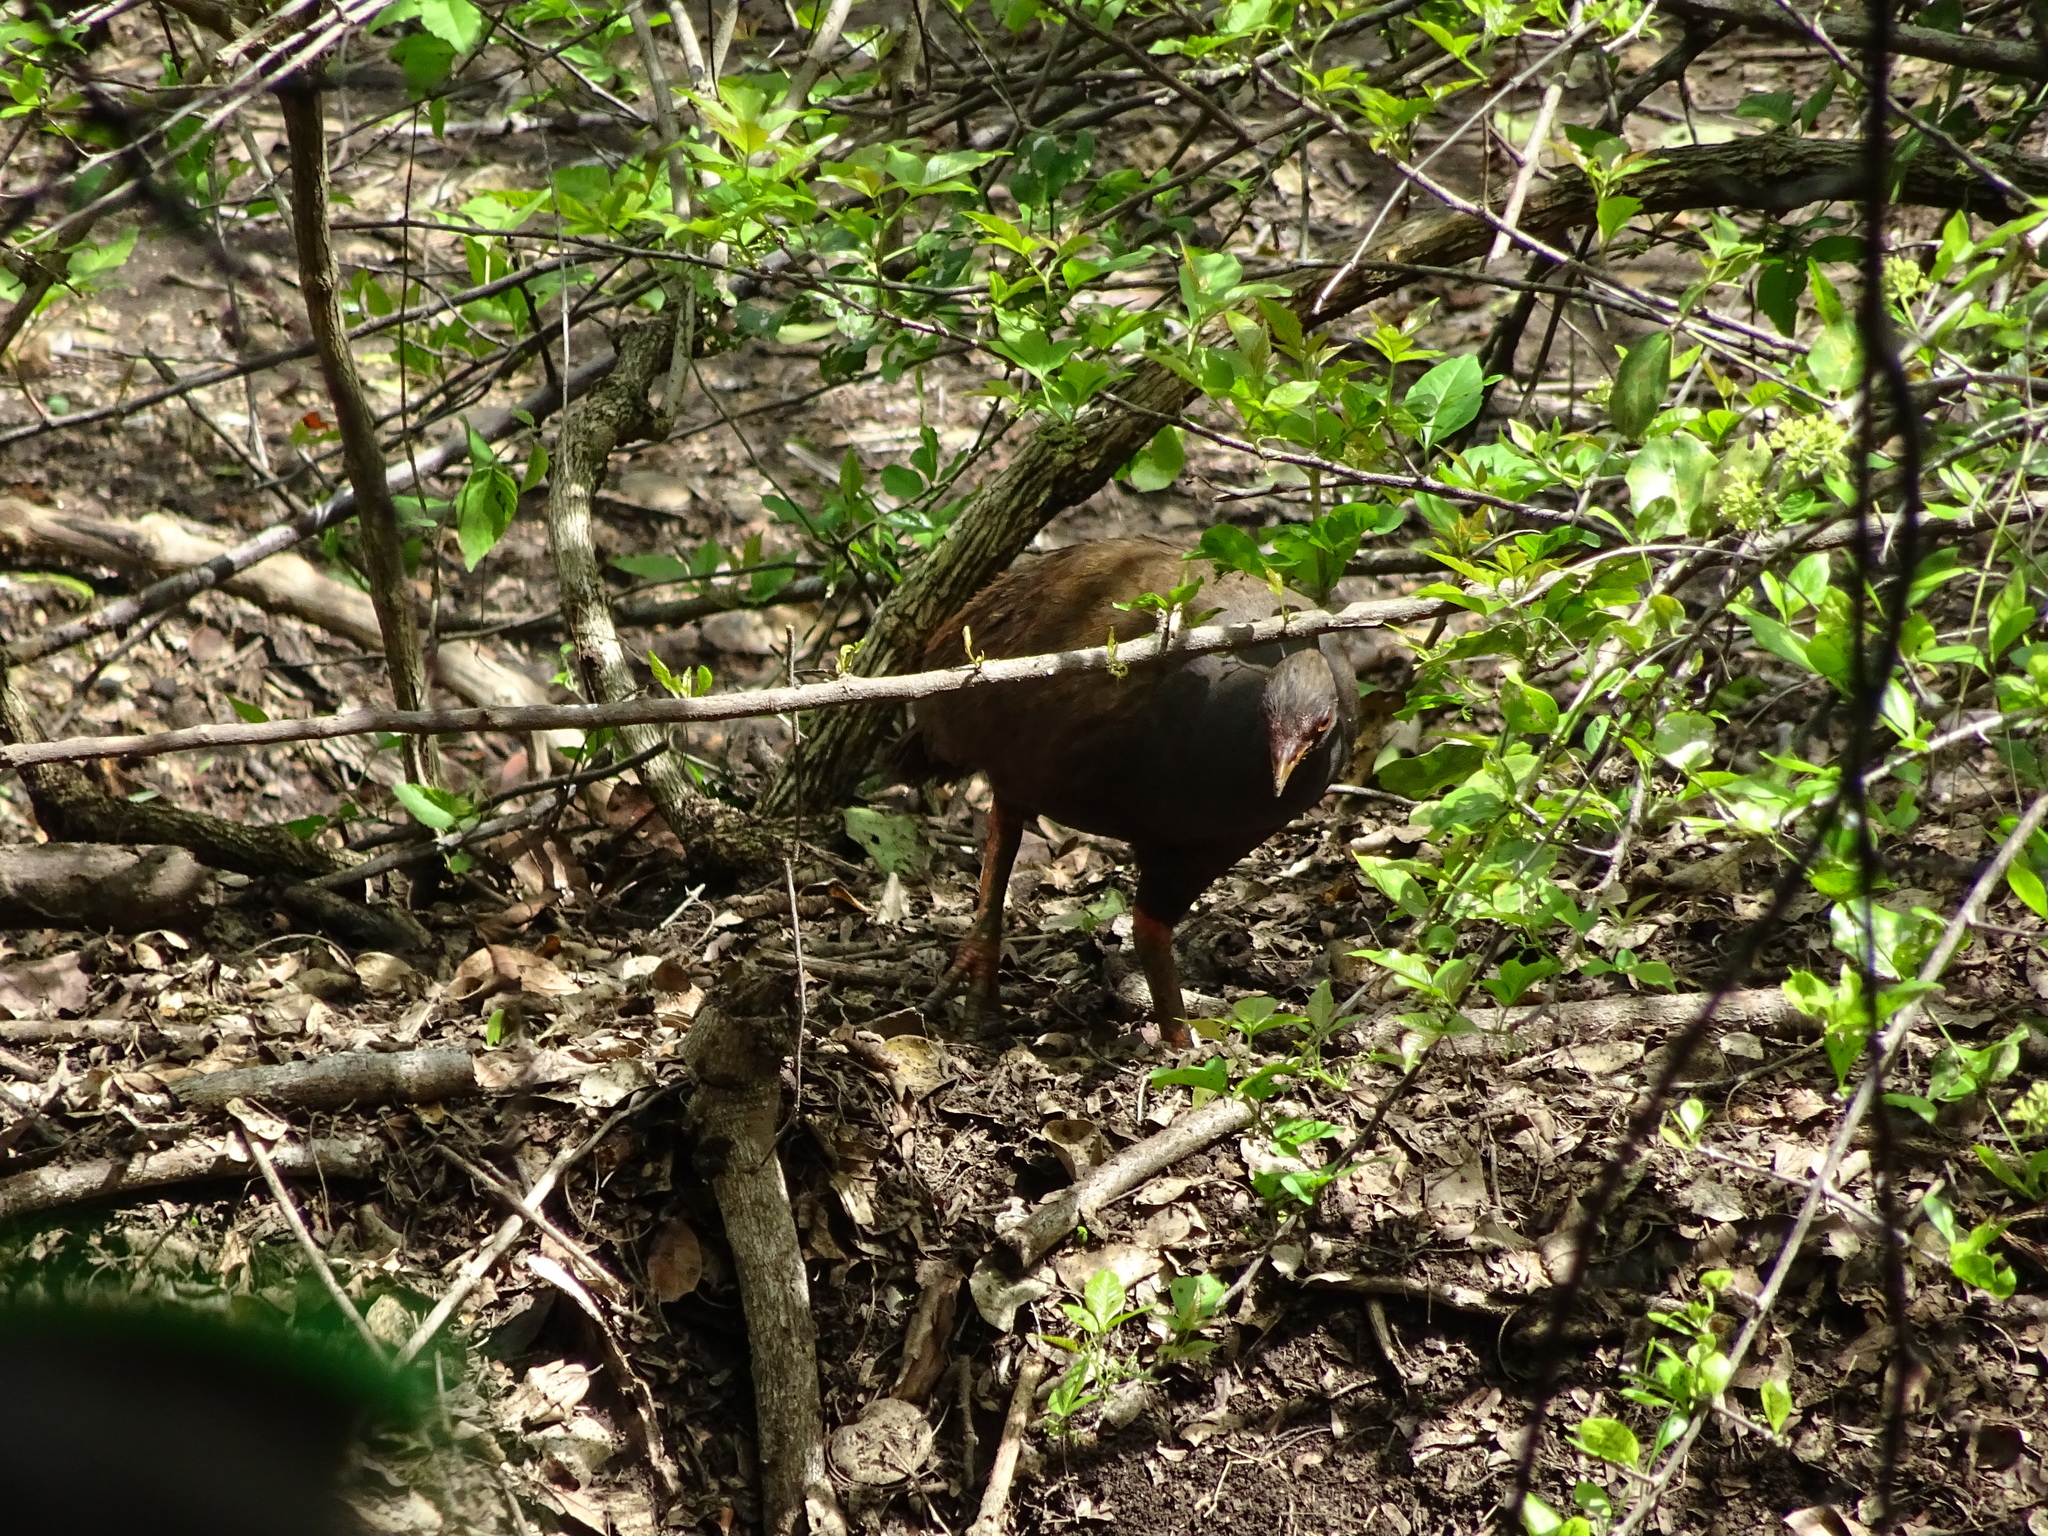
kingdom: Animalia
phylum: Chordata
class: Aves
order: Galliformes
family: Megapodiidae
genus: Megapodius
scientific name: Megapodius reinwardt
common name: Orange-footed scrubfowl
